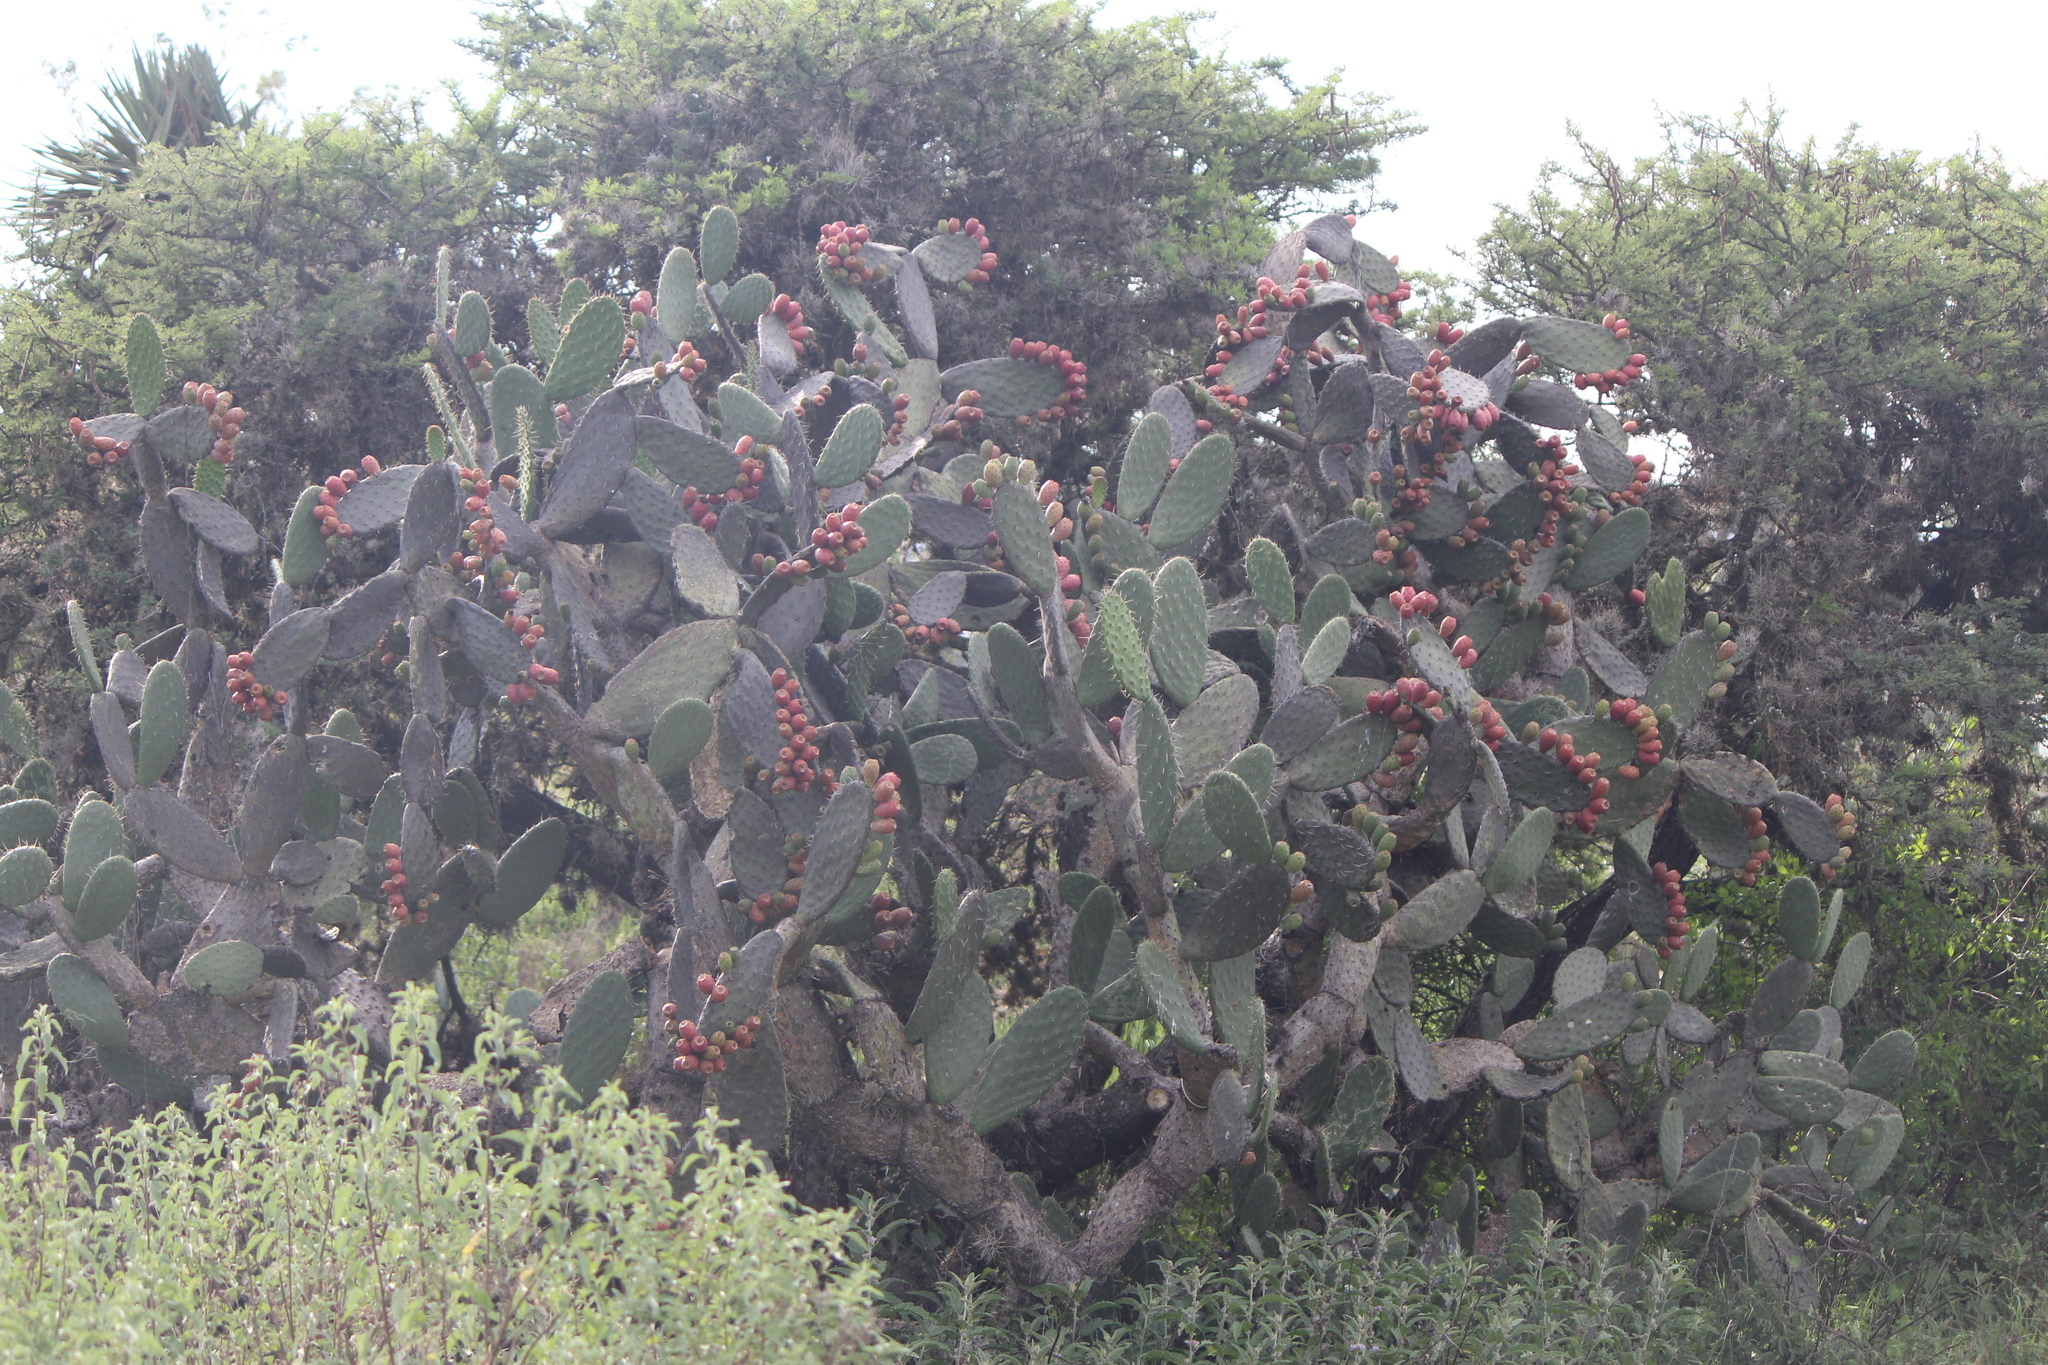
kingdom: Plantae
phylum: Tracheophyta
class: Magnoliopsida
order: Caryophyllales
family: Cactaceae
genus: Opuntia
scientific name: Opuntia streptacantha
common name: Gracemere-pear
